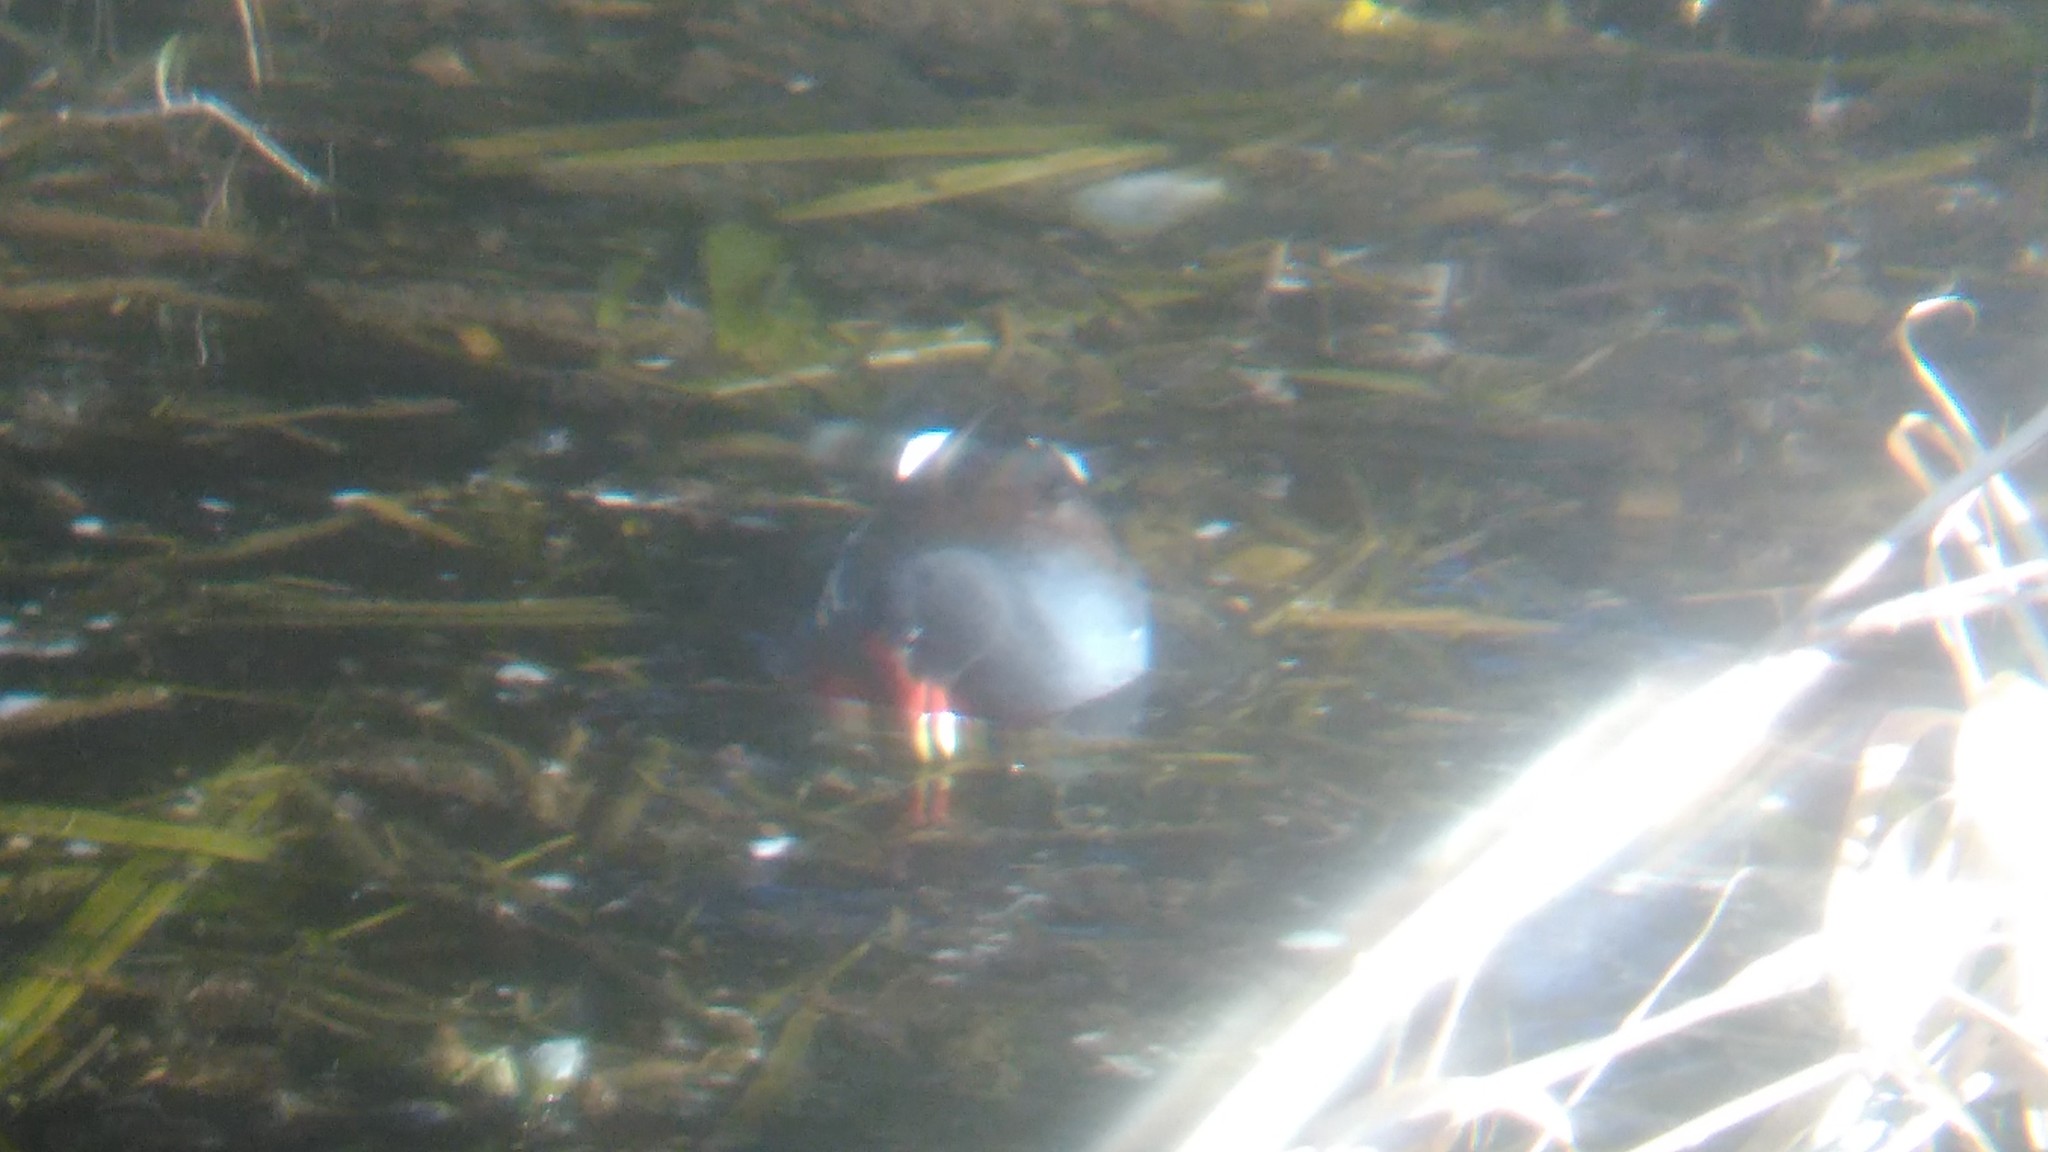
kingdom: Animalia
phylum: Chordata
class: Aves
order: Gruiformes
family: Rallidae
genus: Gallinula
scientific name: Gallinula chloropus
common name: Common moorhen
